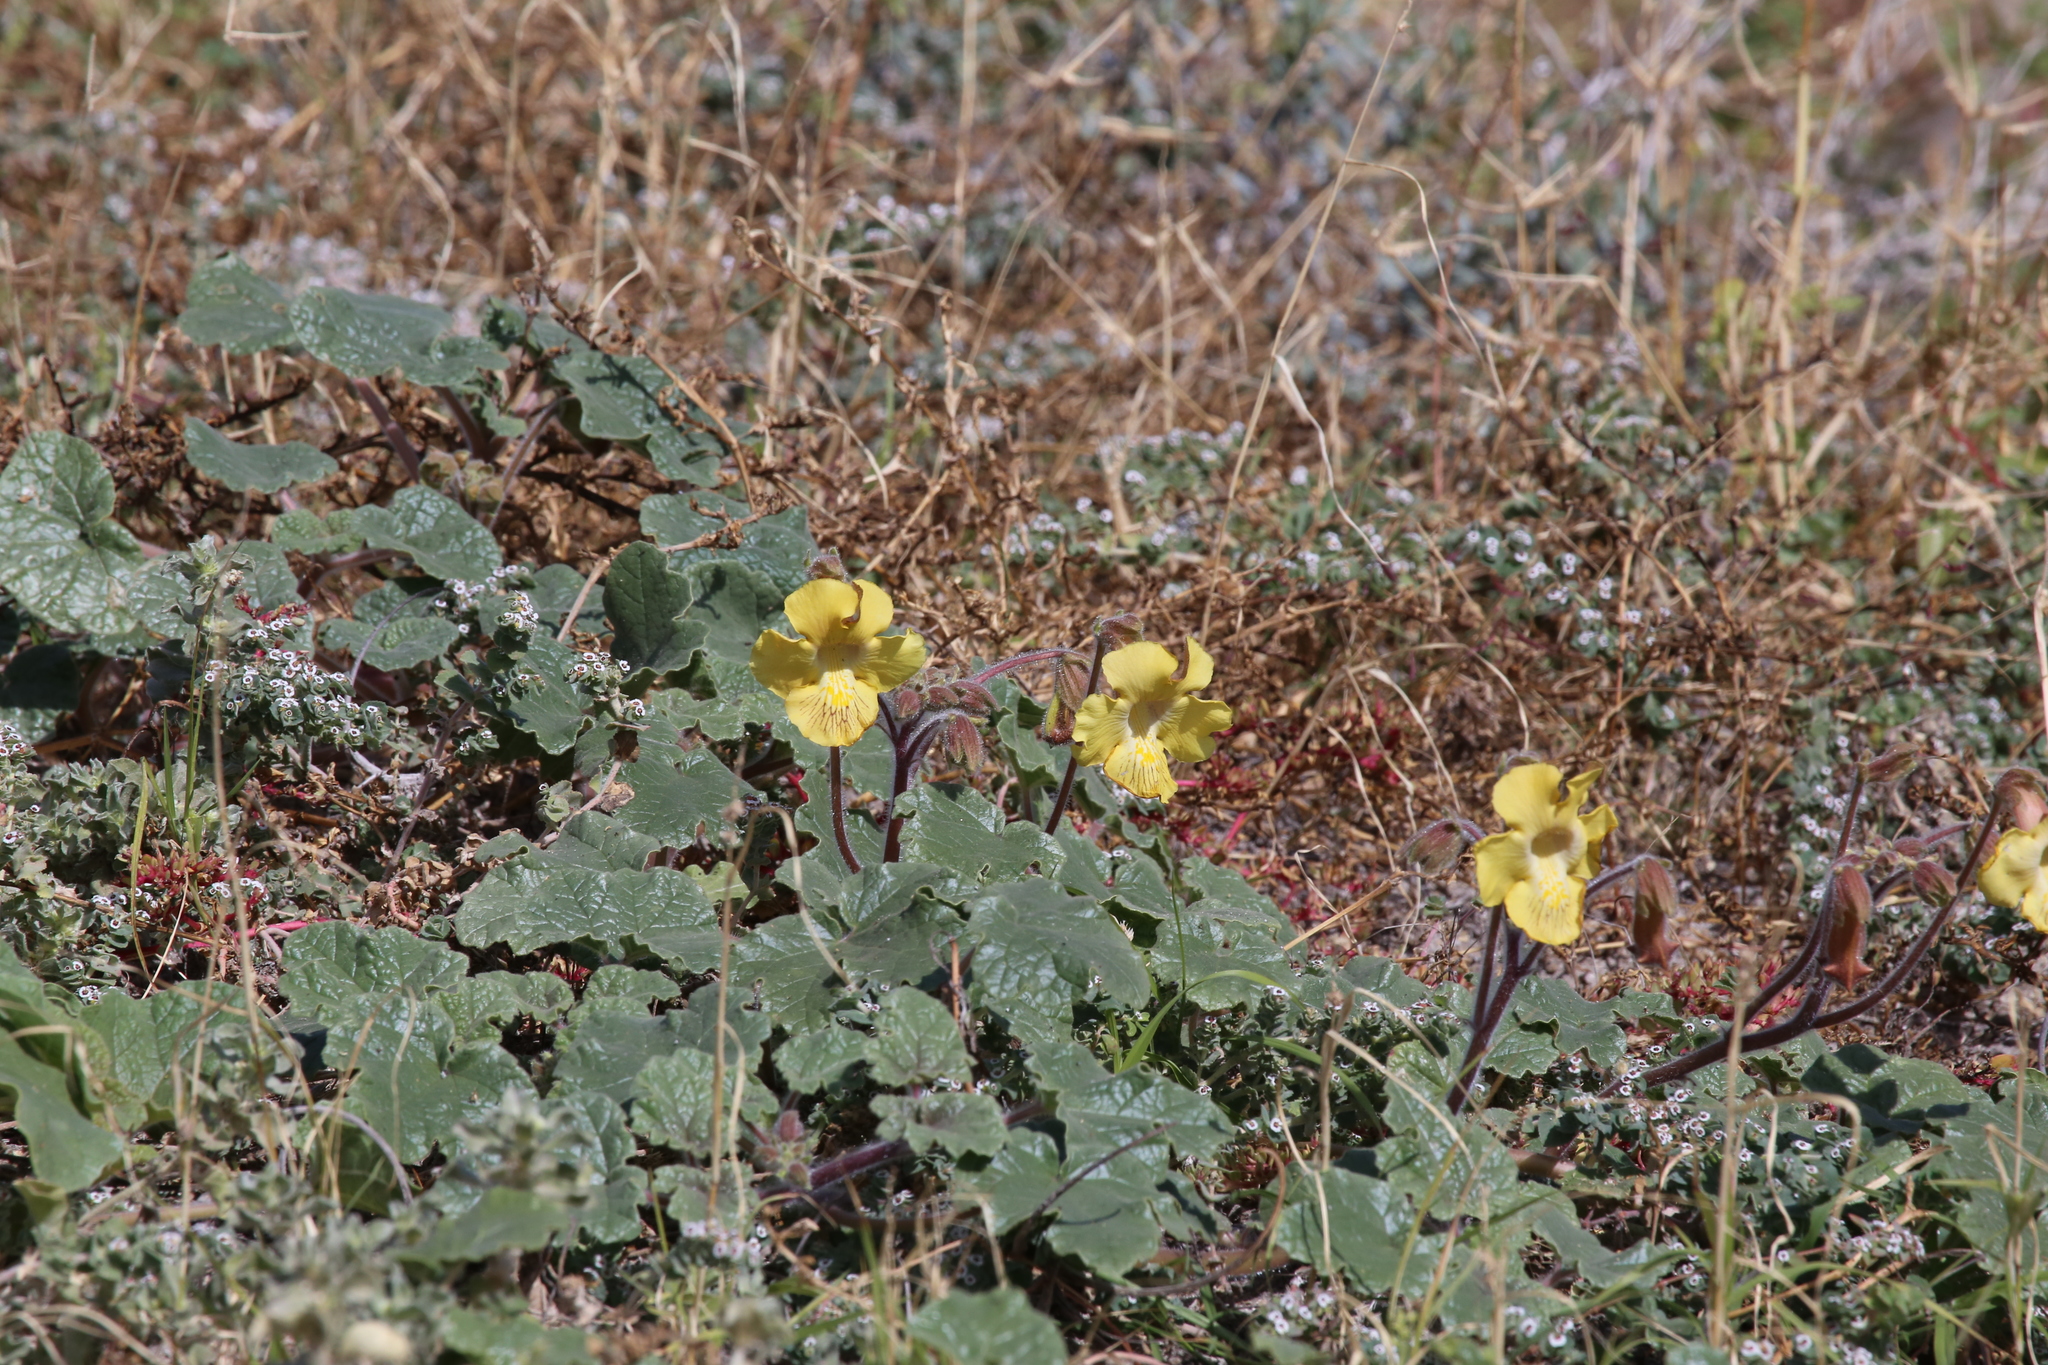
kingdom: Plantae
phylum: Tracheophyta
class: Magnoliopsida
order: Lamiales
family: Martyniaceae
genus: Proboscidea
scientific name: Proboscidea althaeifolia
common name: Desert unicorn-plant
